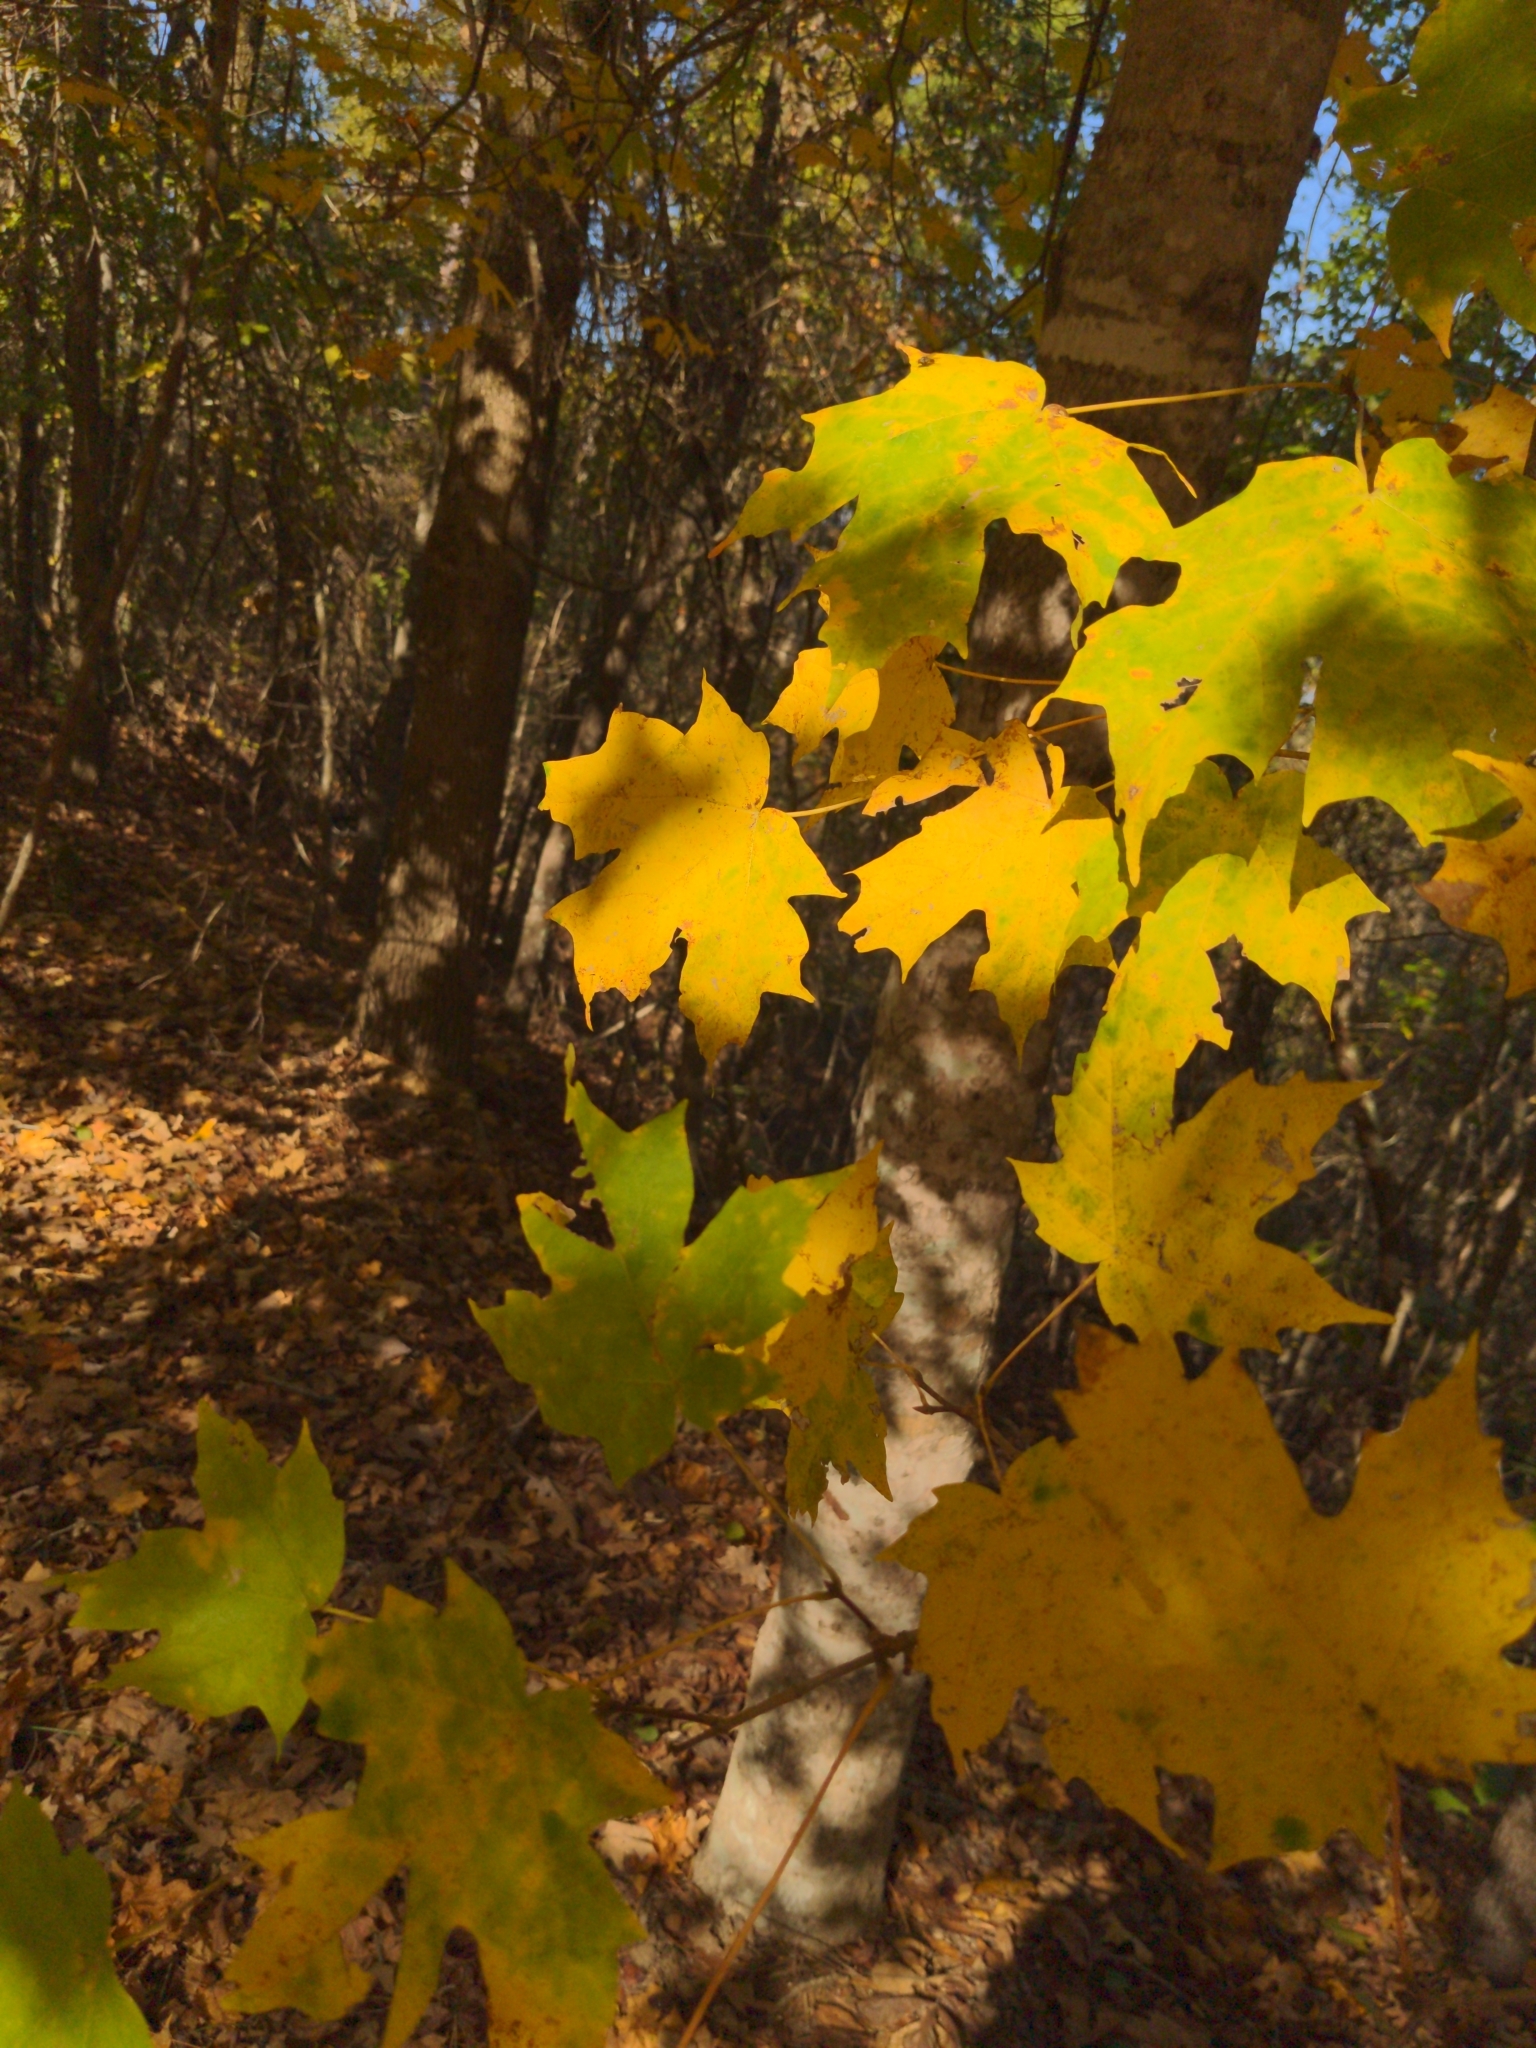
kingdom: Plantae
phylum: Tracheophyta
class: Magnoliopsida
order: Sapindales
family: Sapindaceae
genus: Acer
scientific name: Acer floridanum
